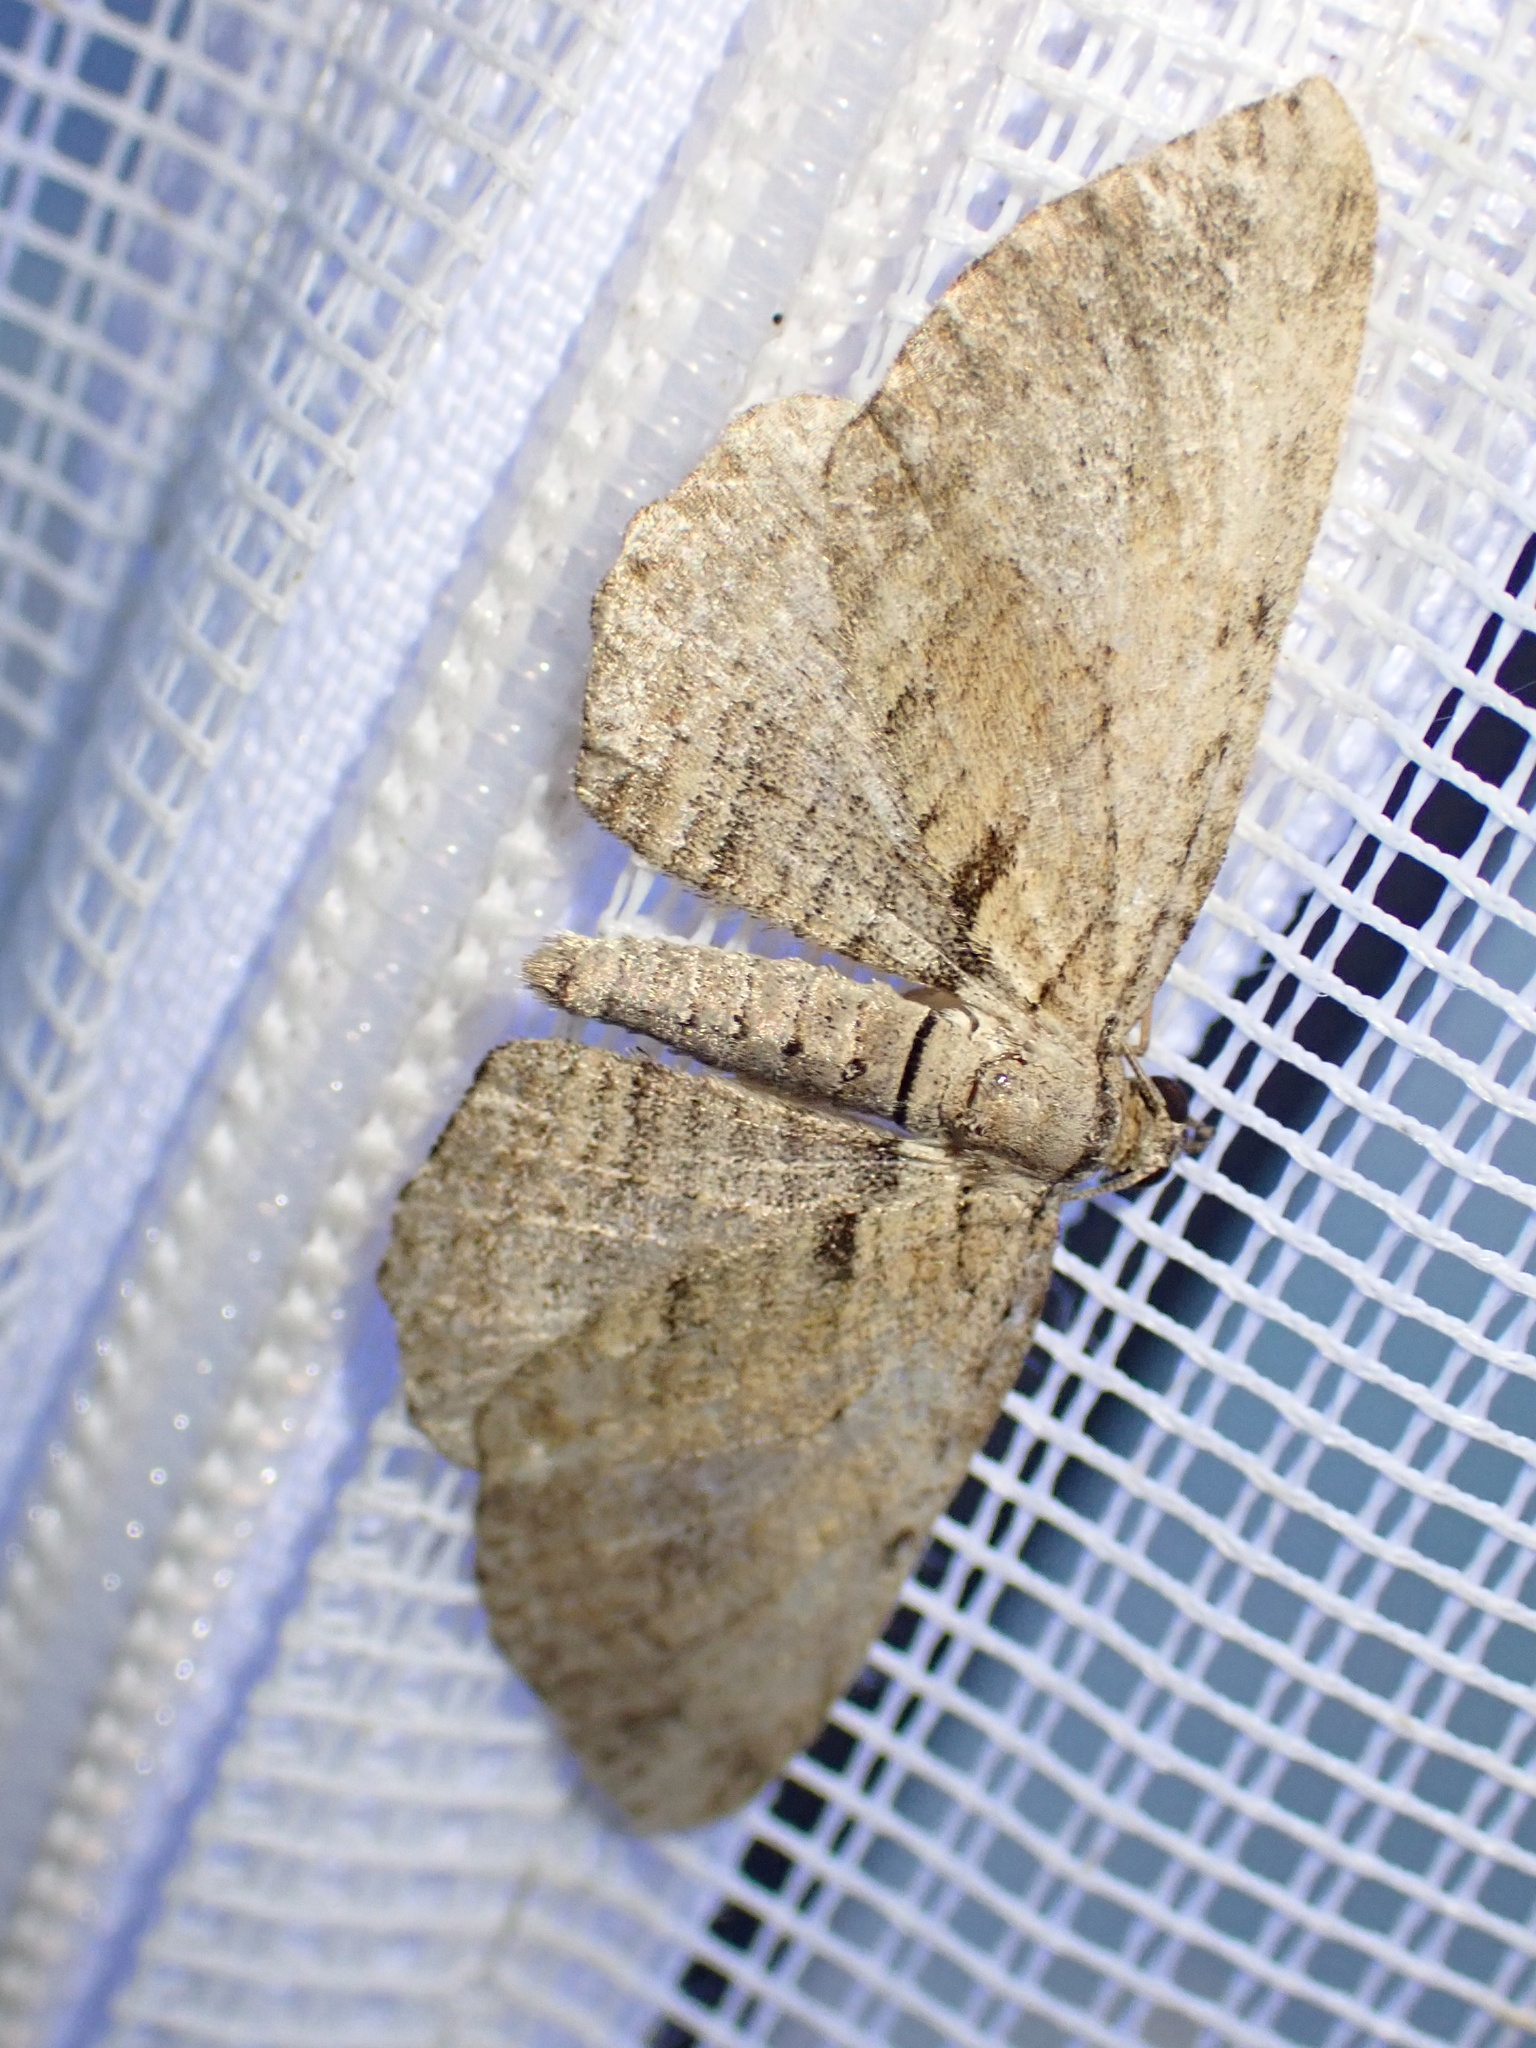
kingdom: Animalia
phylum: Arthropoda
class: Insecta
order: Lepidoptera
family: Geometridae
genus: Horisme
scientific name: Horisme tersata
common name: Fern
